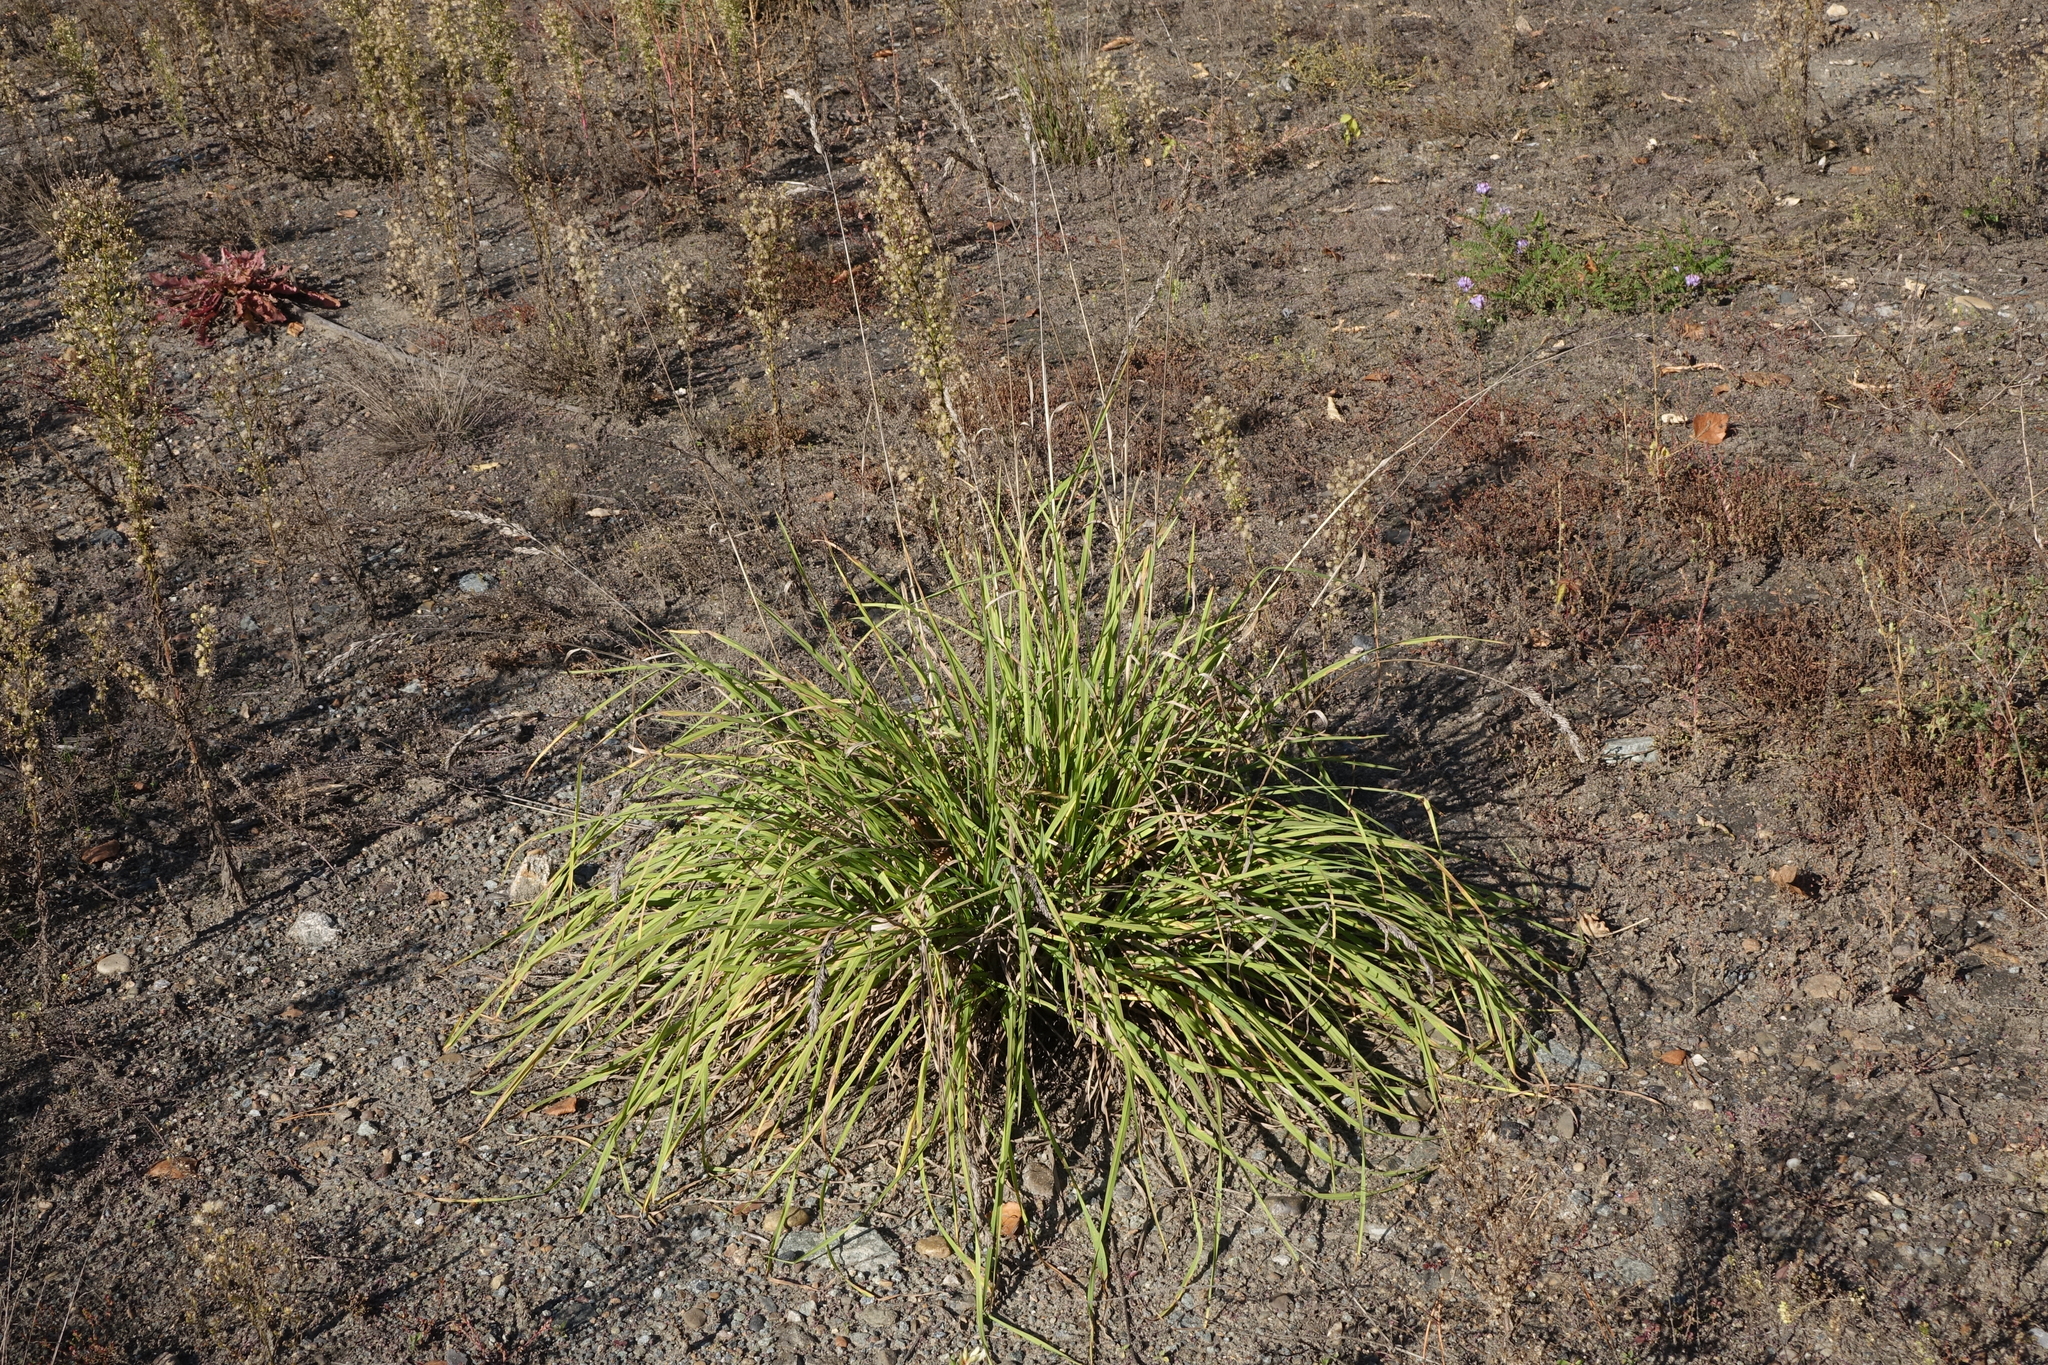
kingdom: Plantae
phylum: Tracheophyta
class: Liliopsida
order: Poales
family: Poaceae
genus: Dactylis
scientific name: Dactylis glomerata
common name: Orchardgrass
